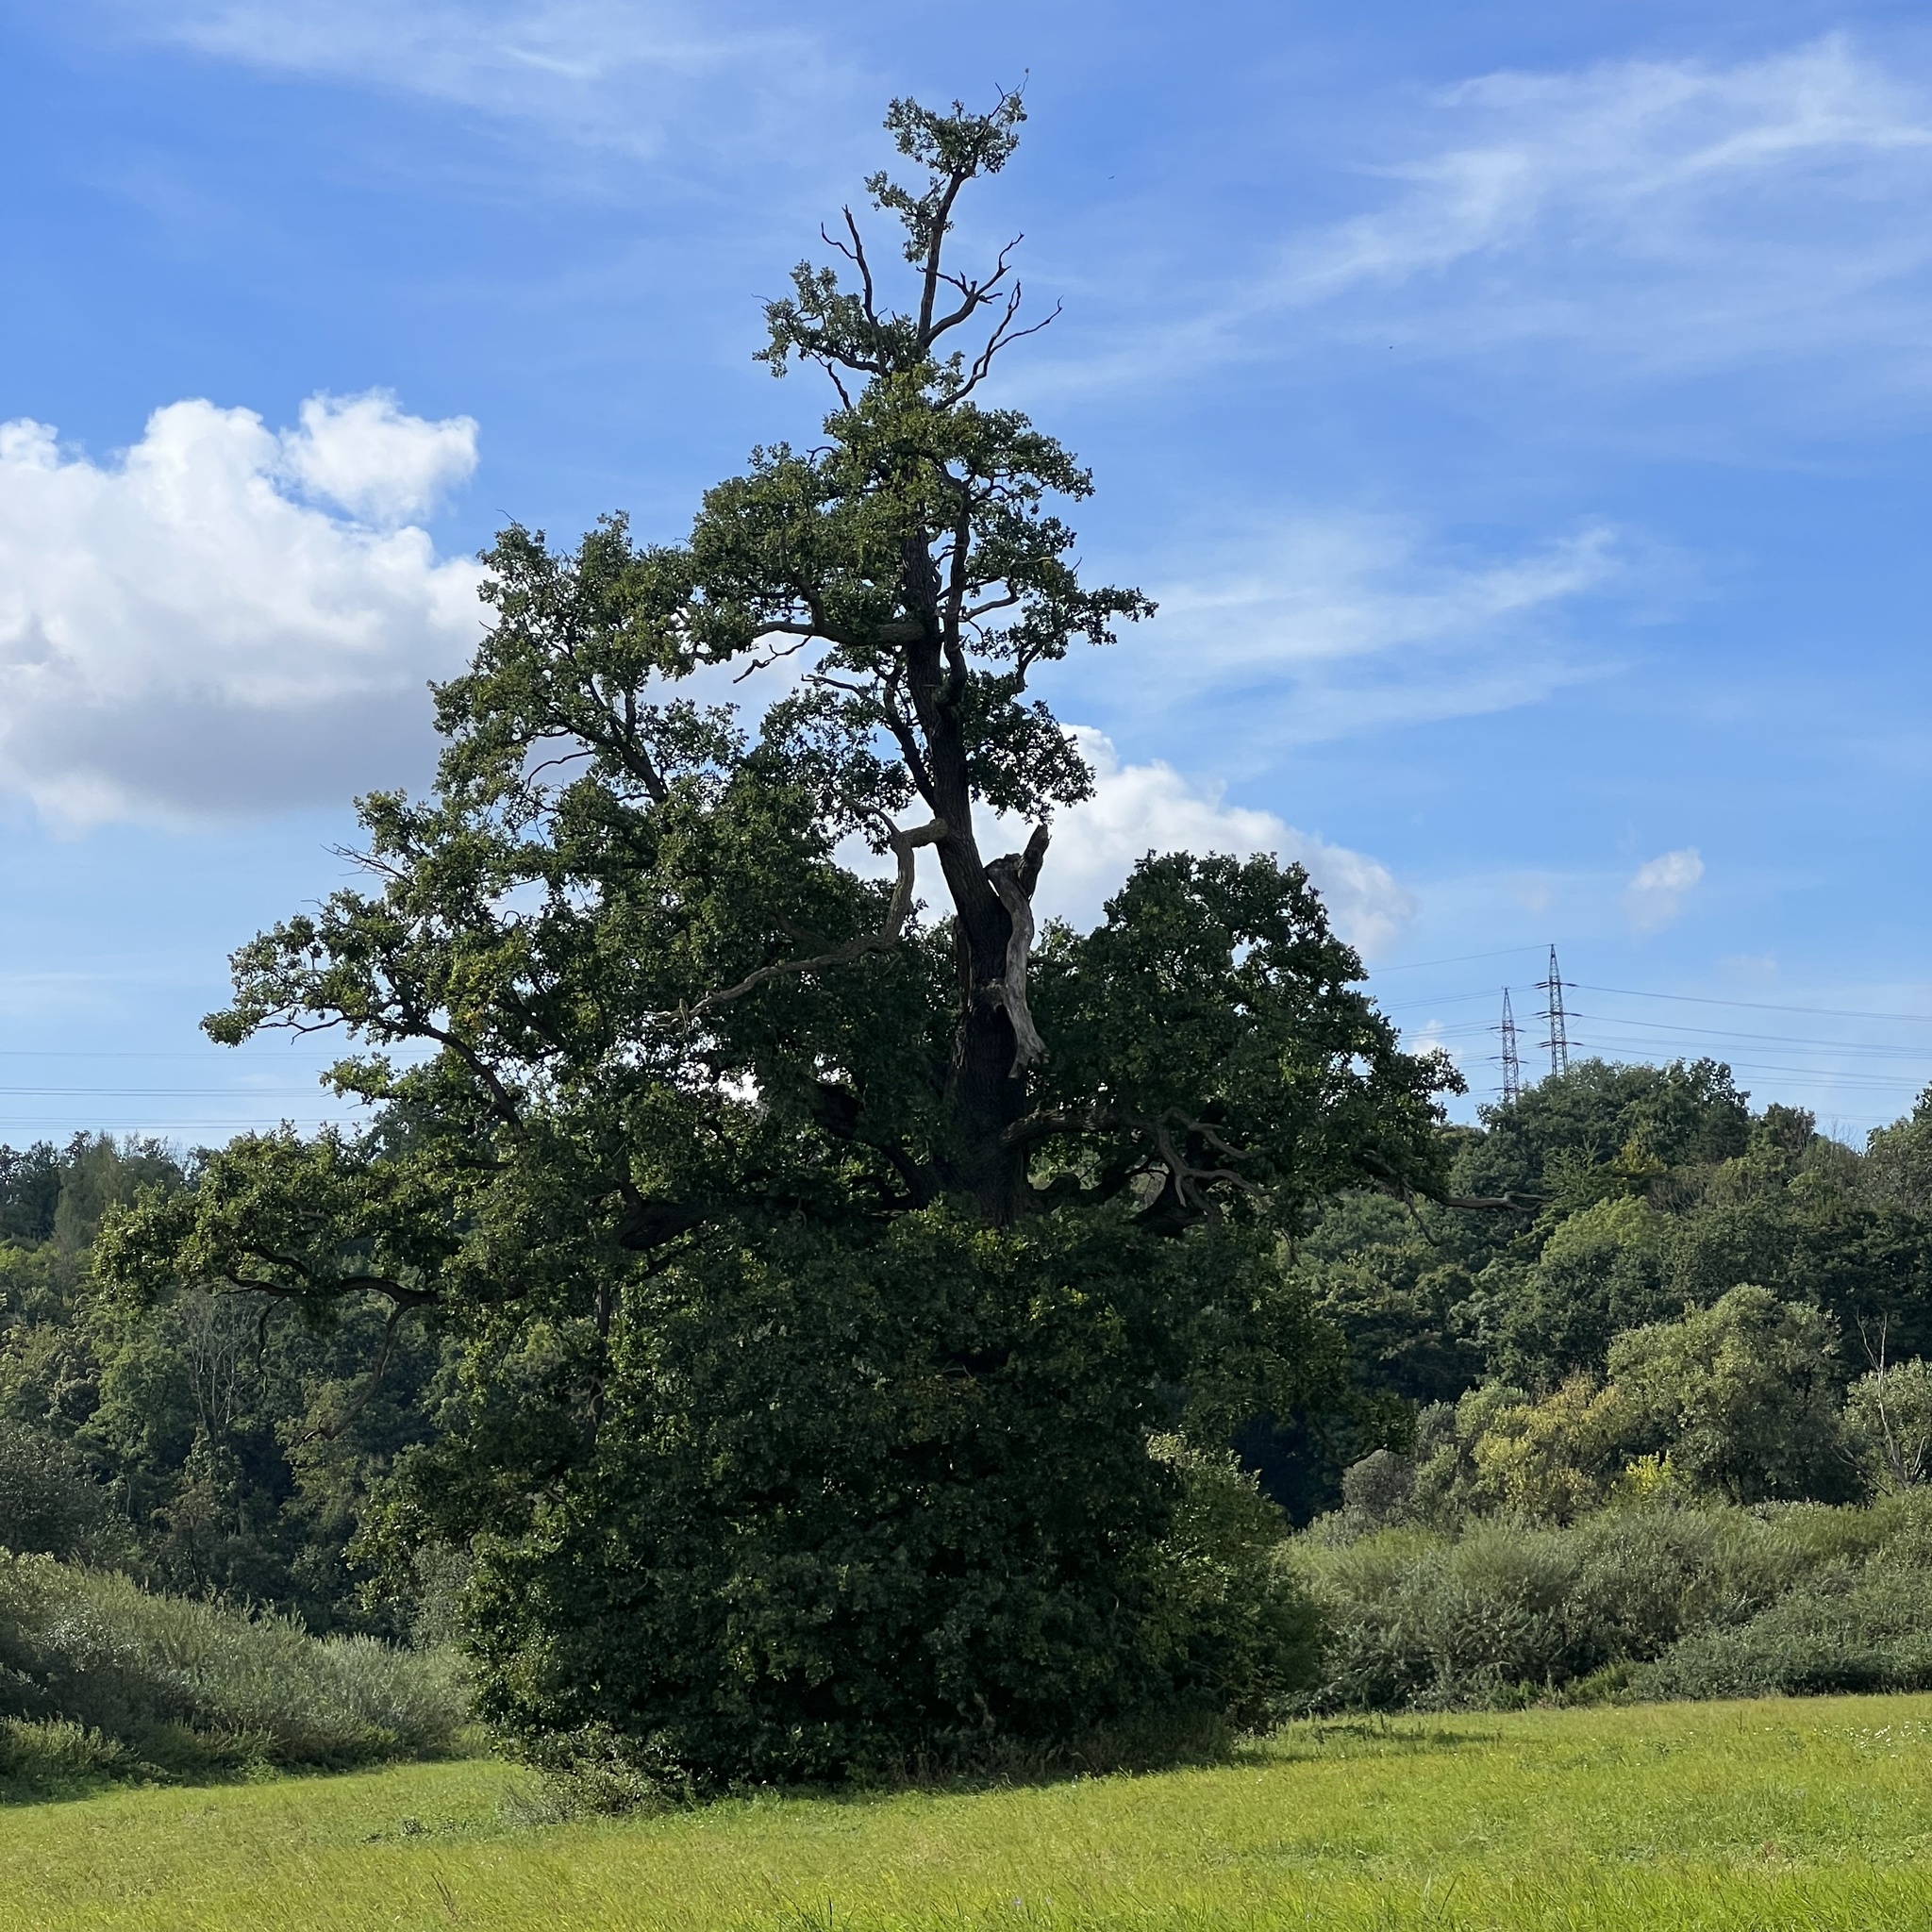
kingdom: Plantae
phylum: Tracheophyta
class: Magnoliopsida
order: Fagales
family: Fagaceae
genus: Quercus
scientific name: Quercus robur
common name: Pedunculate oak
